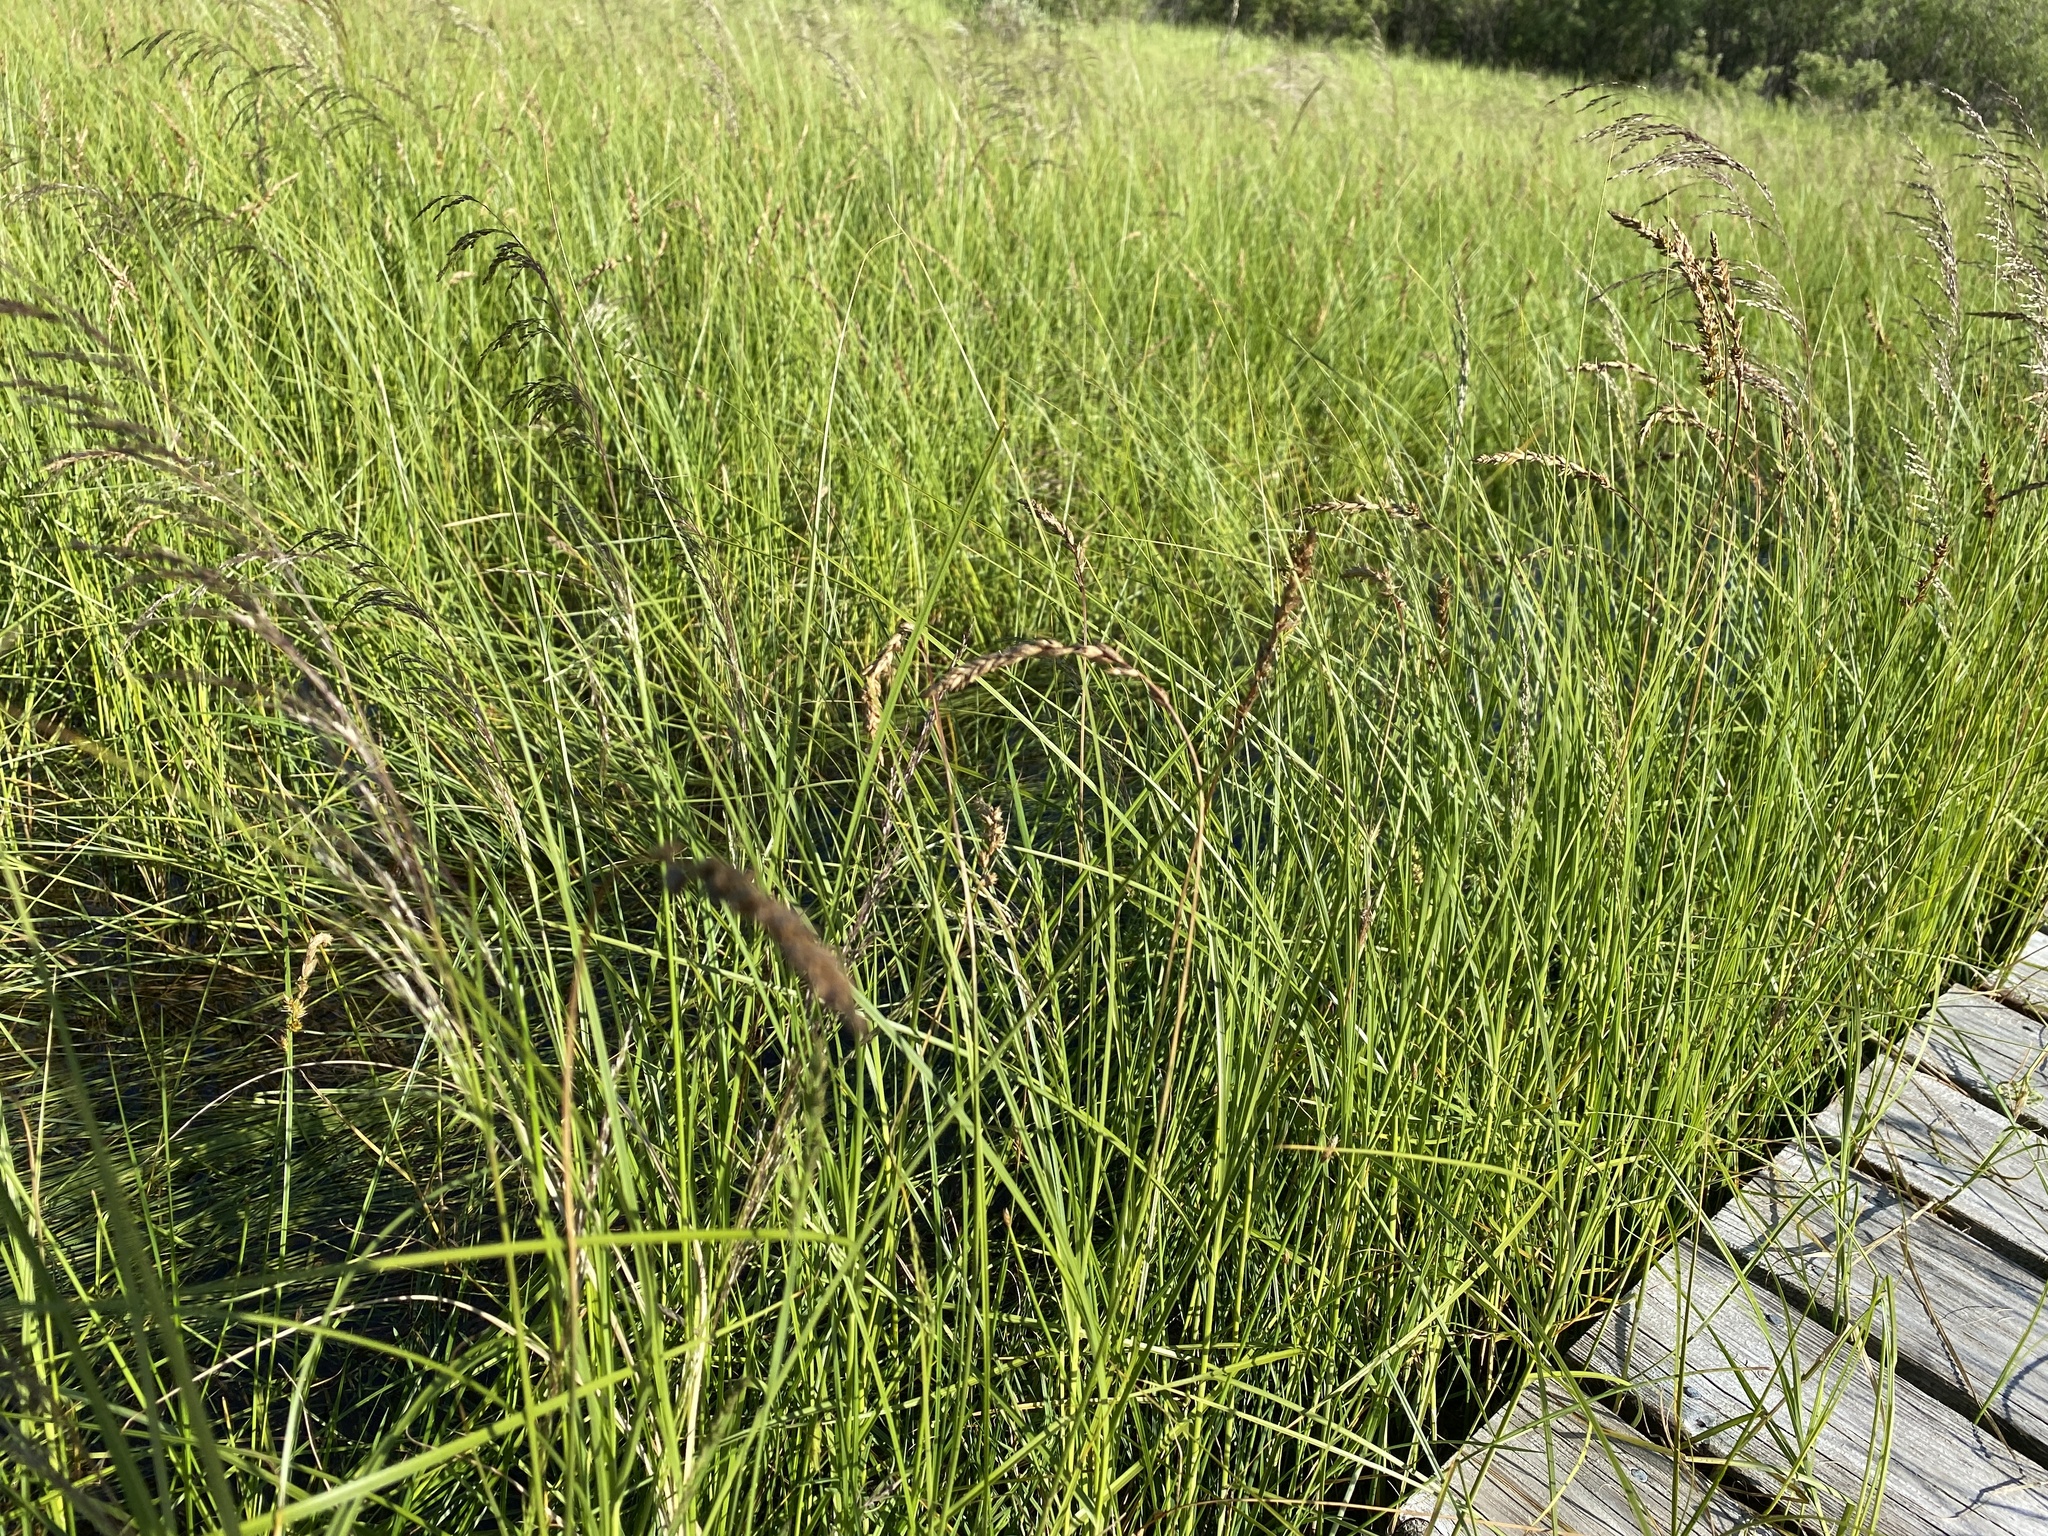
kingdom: Plantae
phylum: Tracheophyta
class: Liliopsida
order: Poales
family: Cyperaceae
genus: Carex
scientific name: Carex sartwellii
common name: Sartwell's sedge
